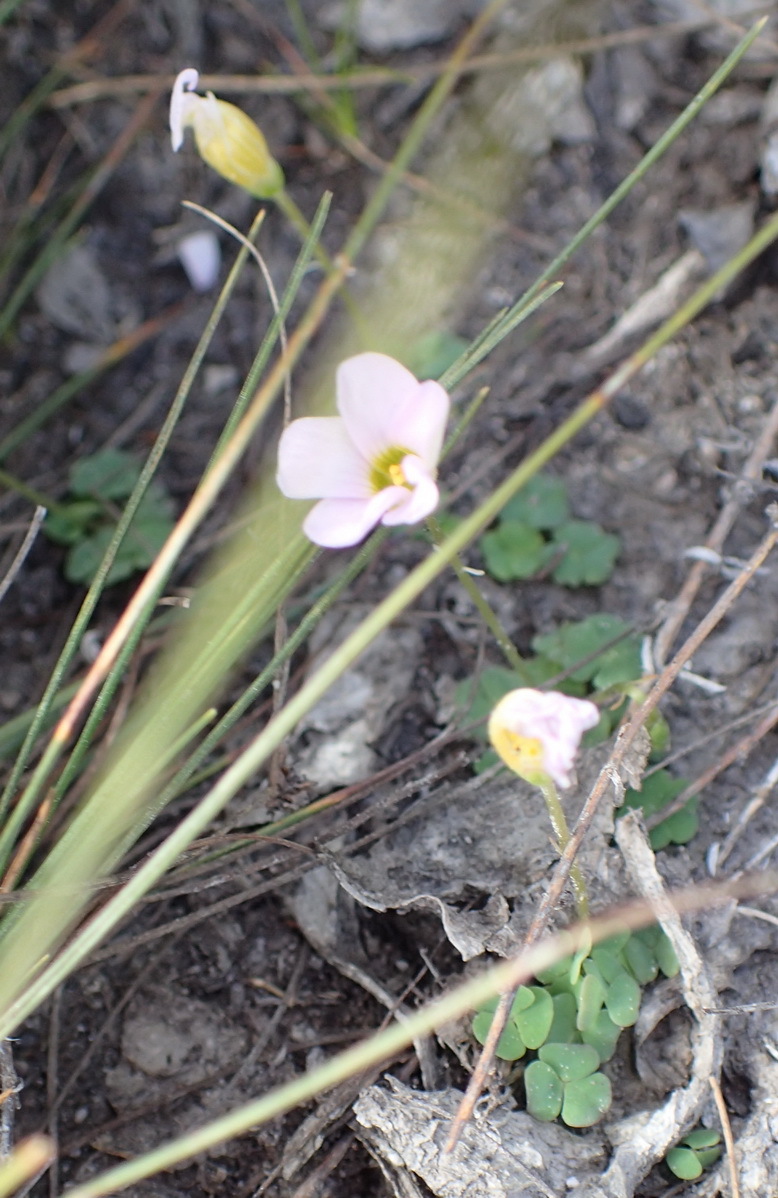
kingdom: Plantae
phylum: Tracheophyta
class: Magnoliopsida
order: Oxalidales
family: Oxalidaceae
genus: Oxalis
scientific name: Oxalis punctata
